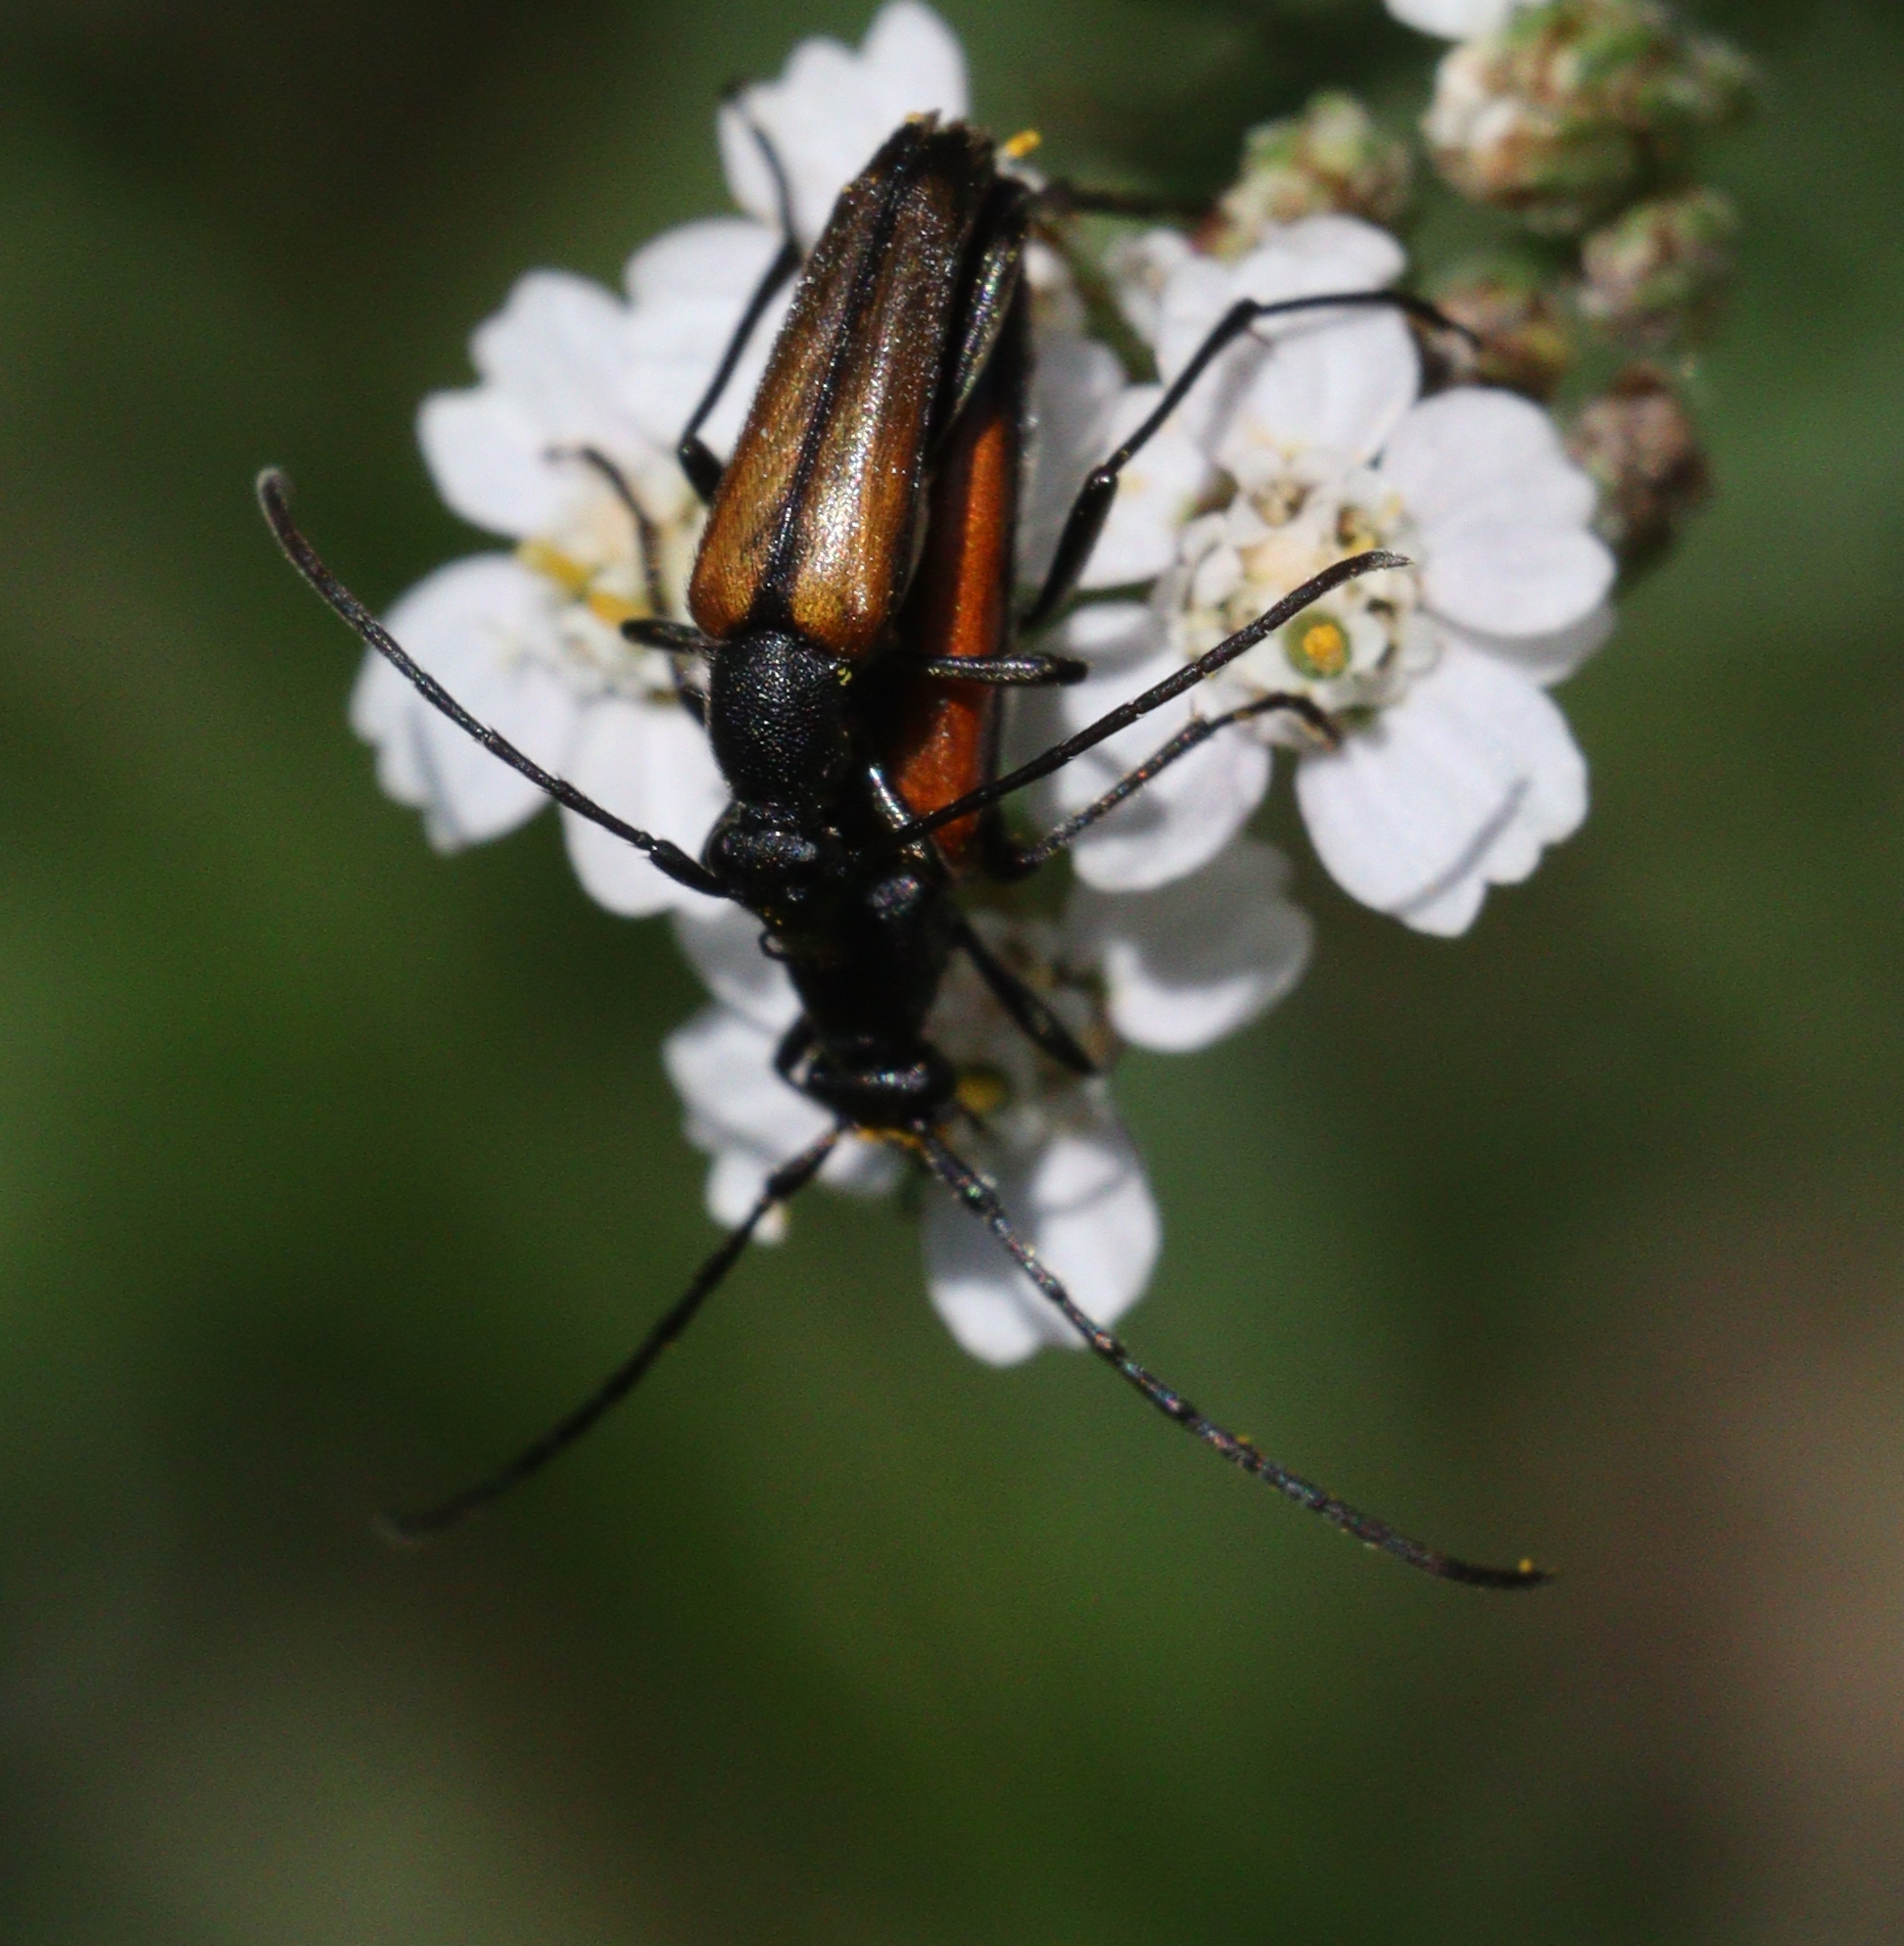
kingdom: Animalia
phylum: Arthropoda
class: Insecta
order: Coleoptera
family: Cerambycidae
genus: Stenurella
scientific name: Stenurella melanura
